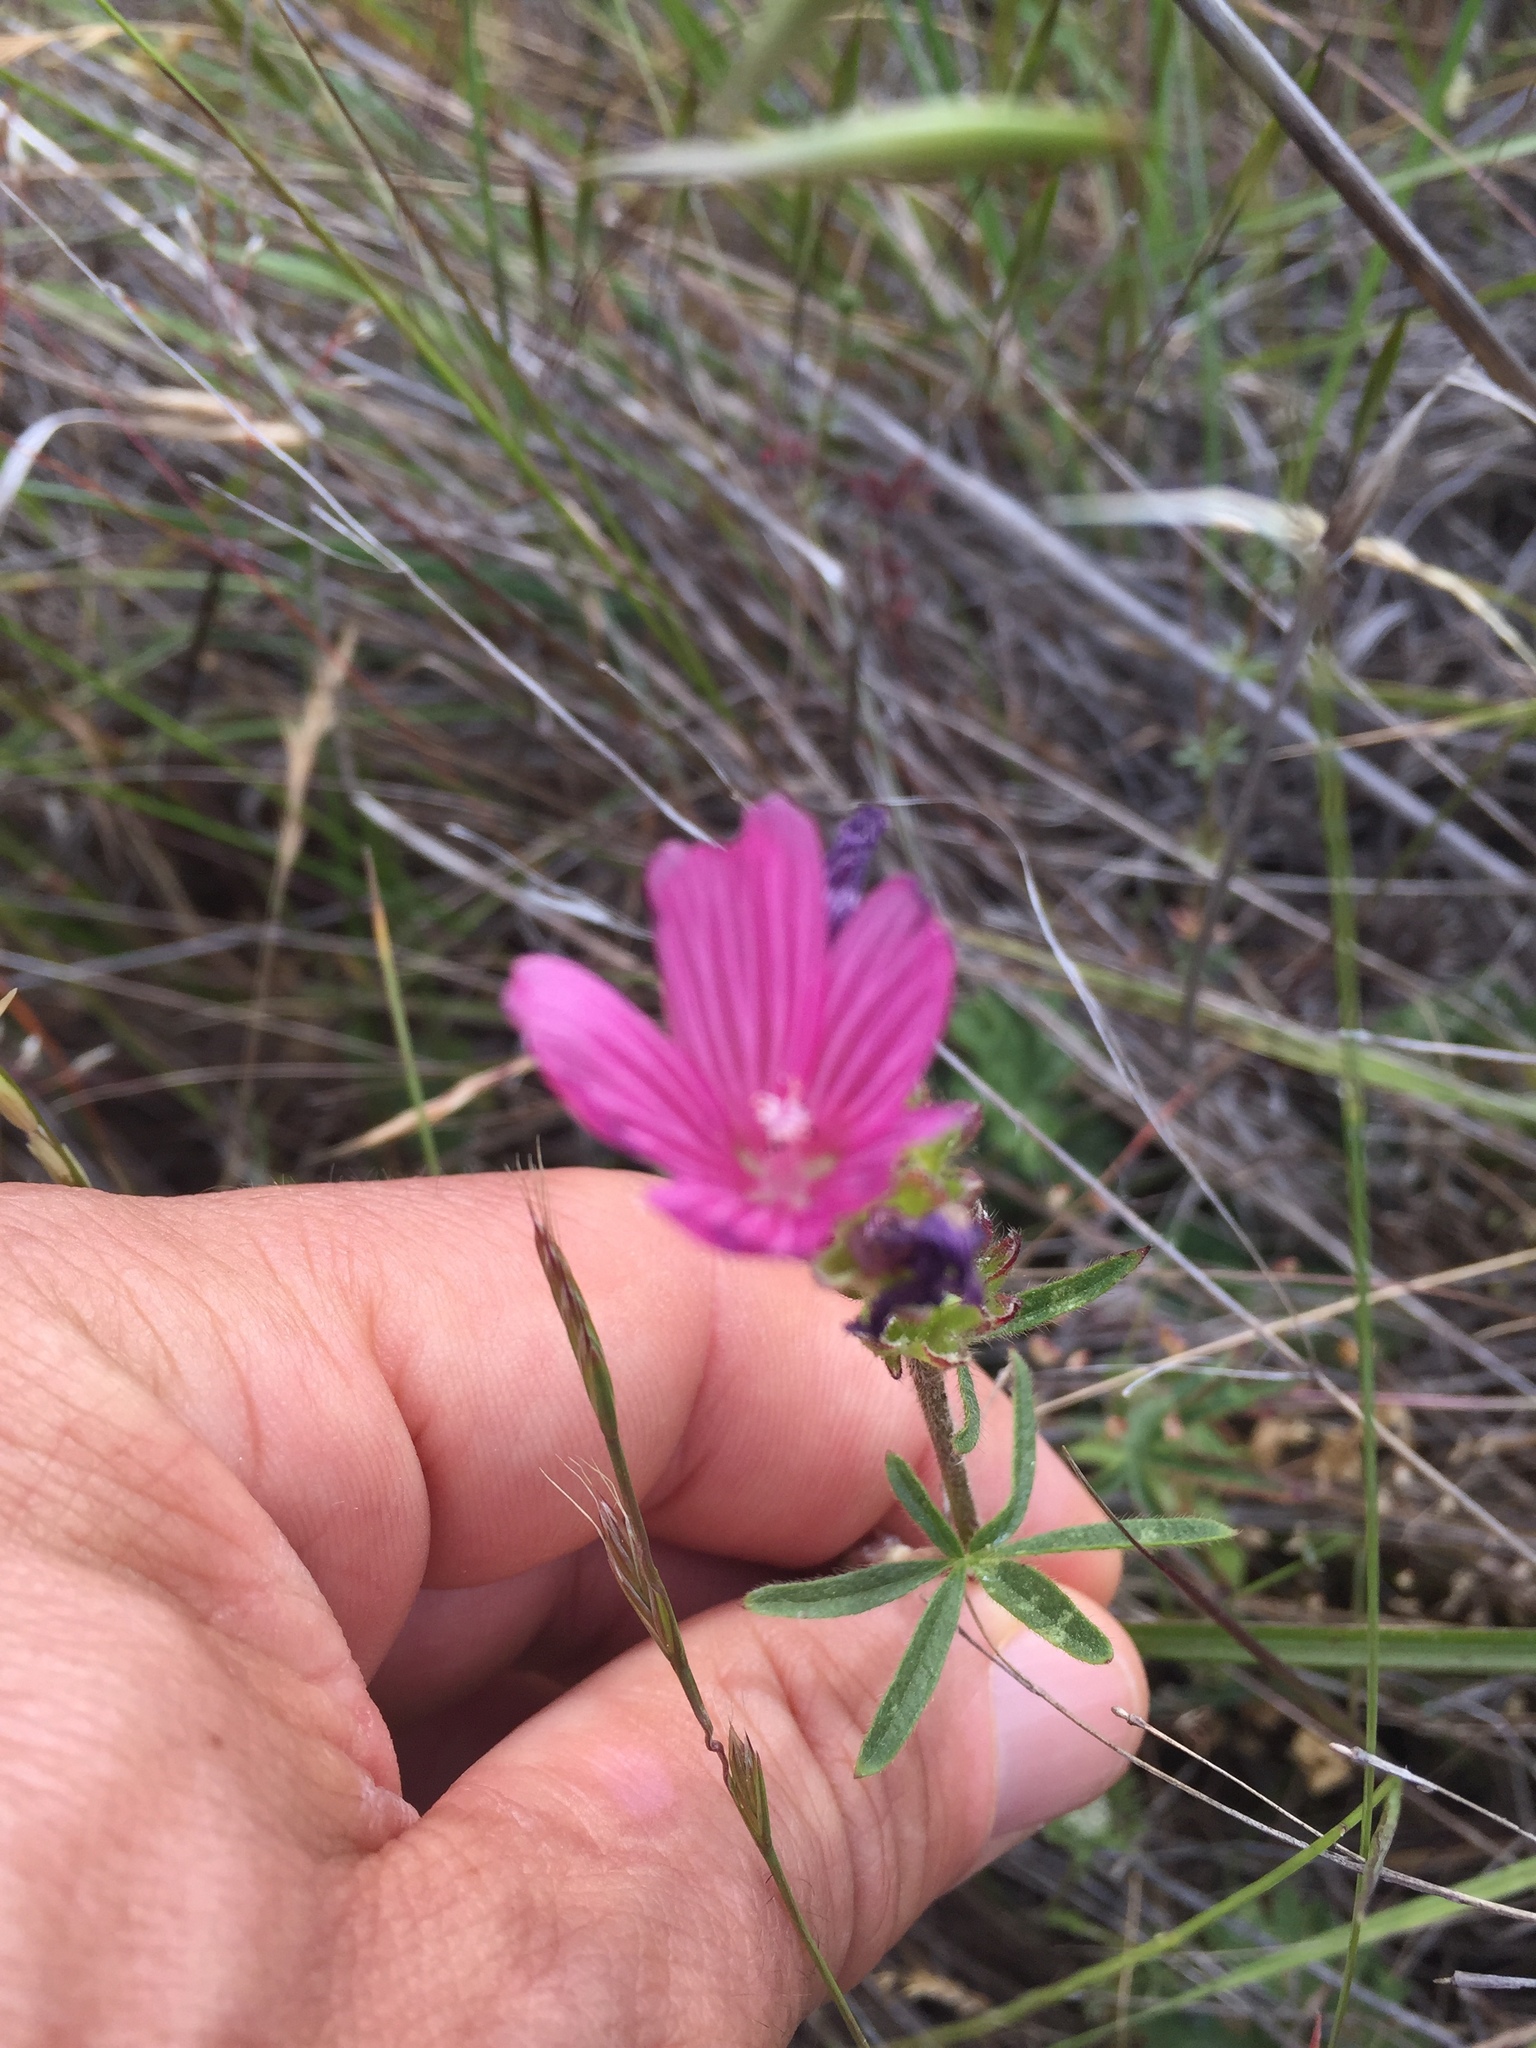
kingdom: Plantae
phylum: Tracheophyta
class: Magnoliopsida
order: Malvales
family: Malvaceae
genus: Sidalcea
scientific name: Sidalcea malviflora
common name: Greek mallow
